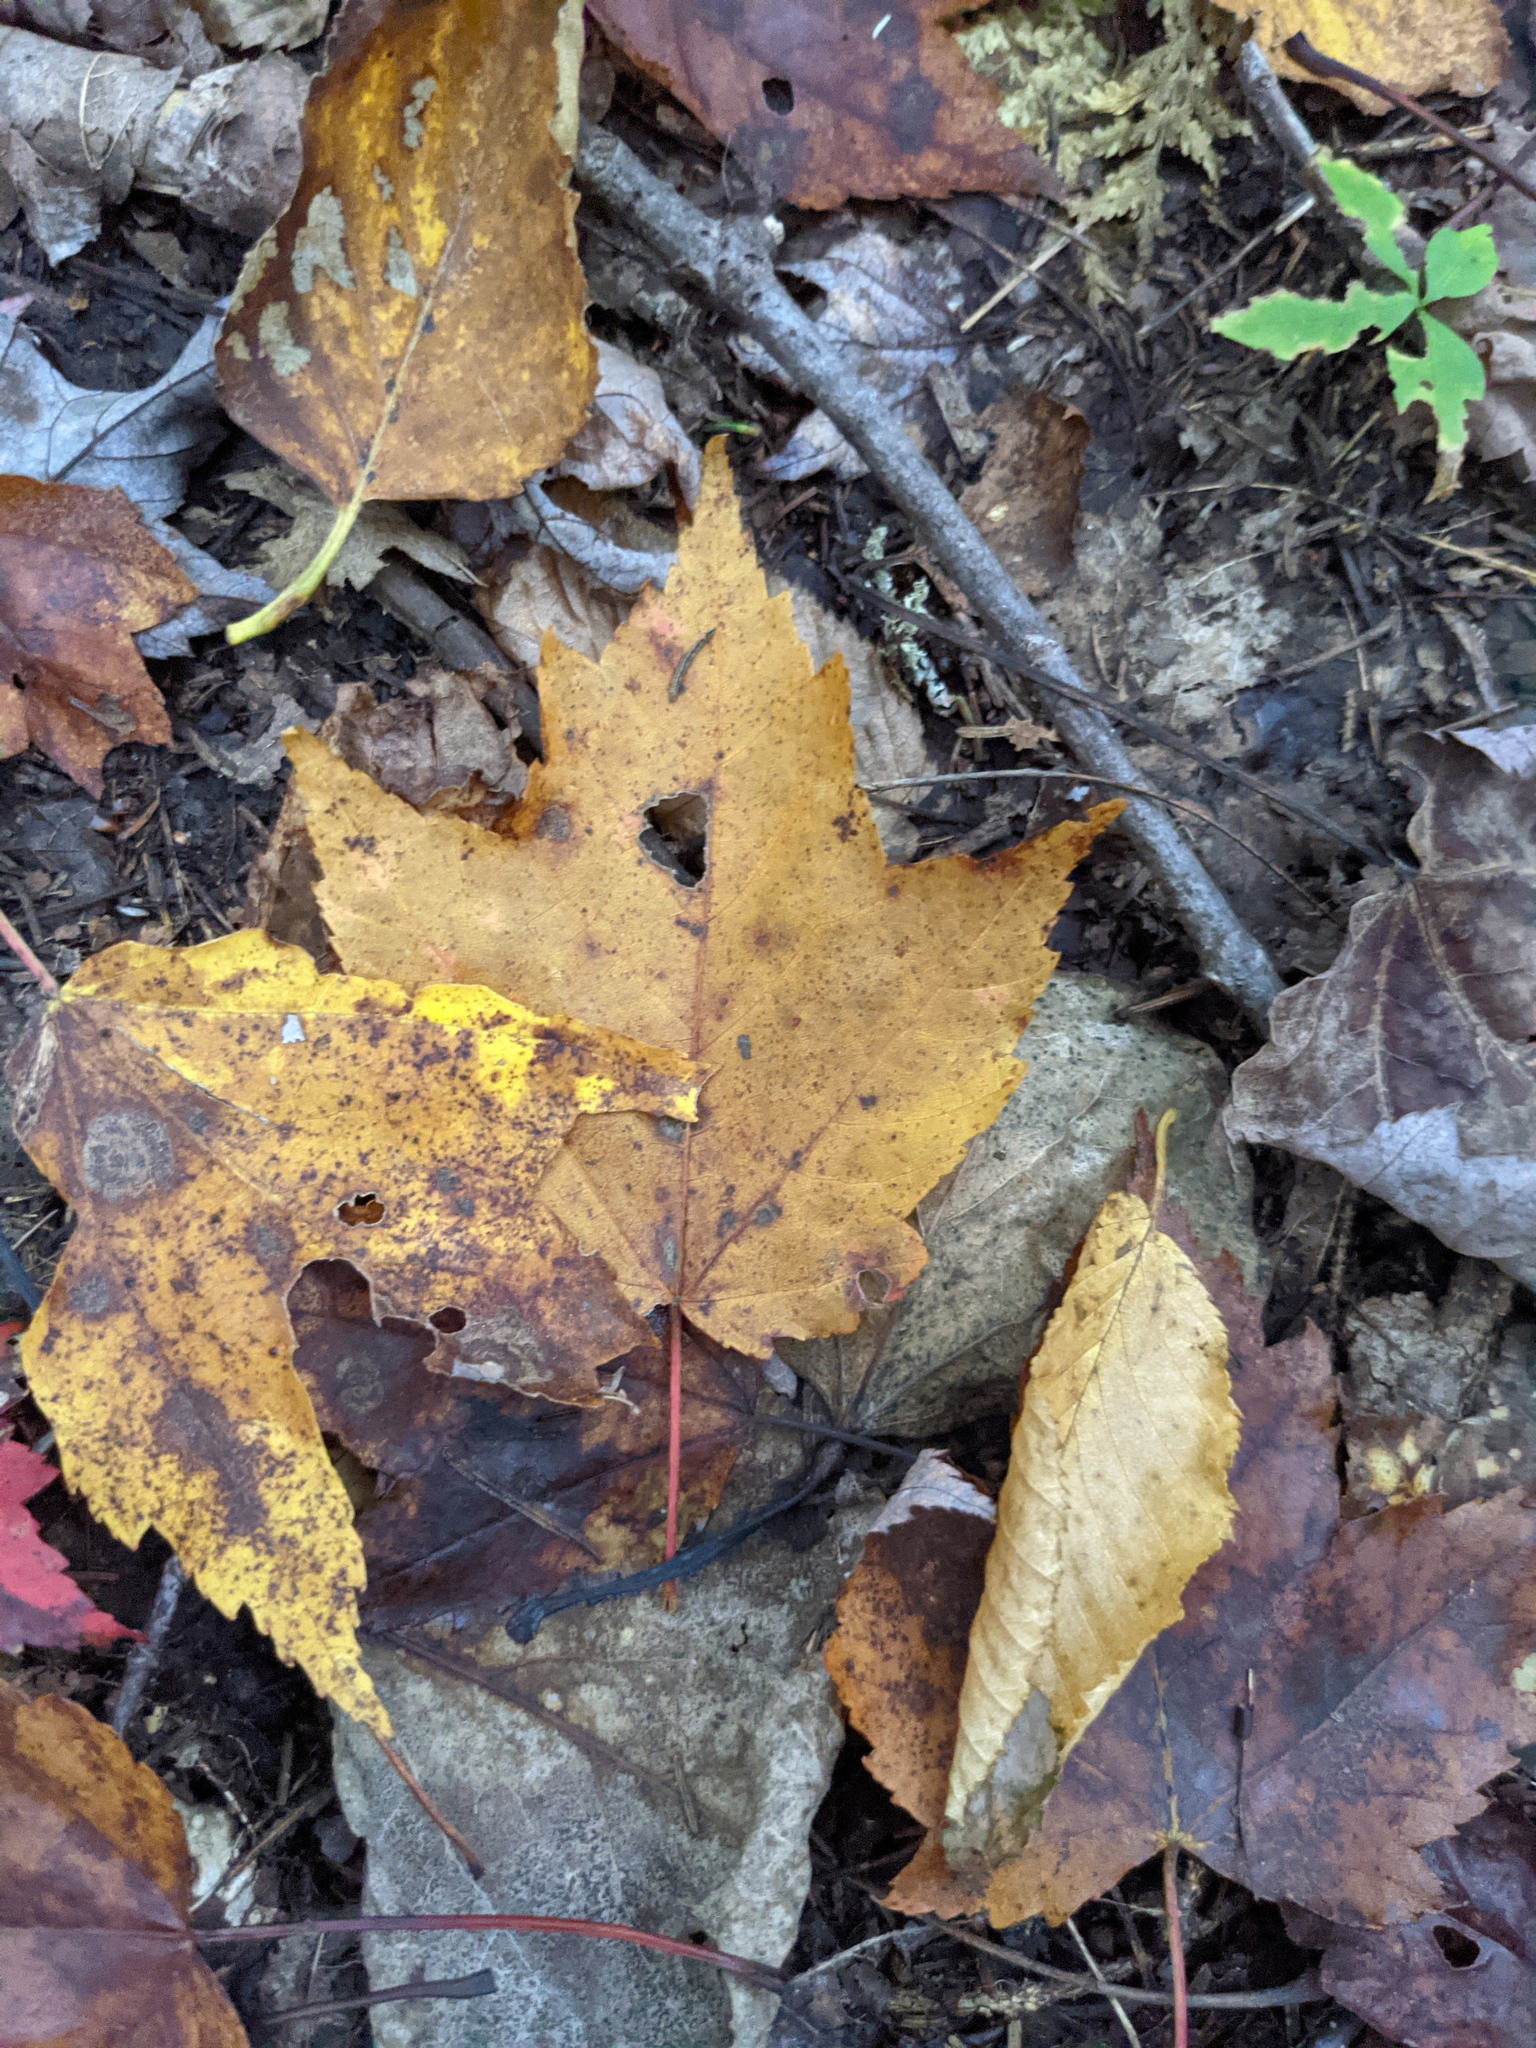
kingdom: Plantae
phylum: Tracheophyta
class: Magnoliopsida
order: Sapindales
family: Sapindaceae
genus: Acer
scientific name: Acer rubrum
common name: Red maple
